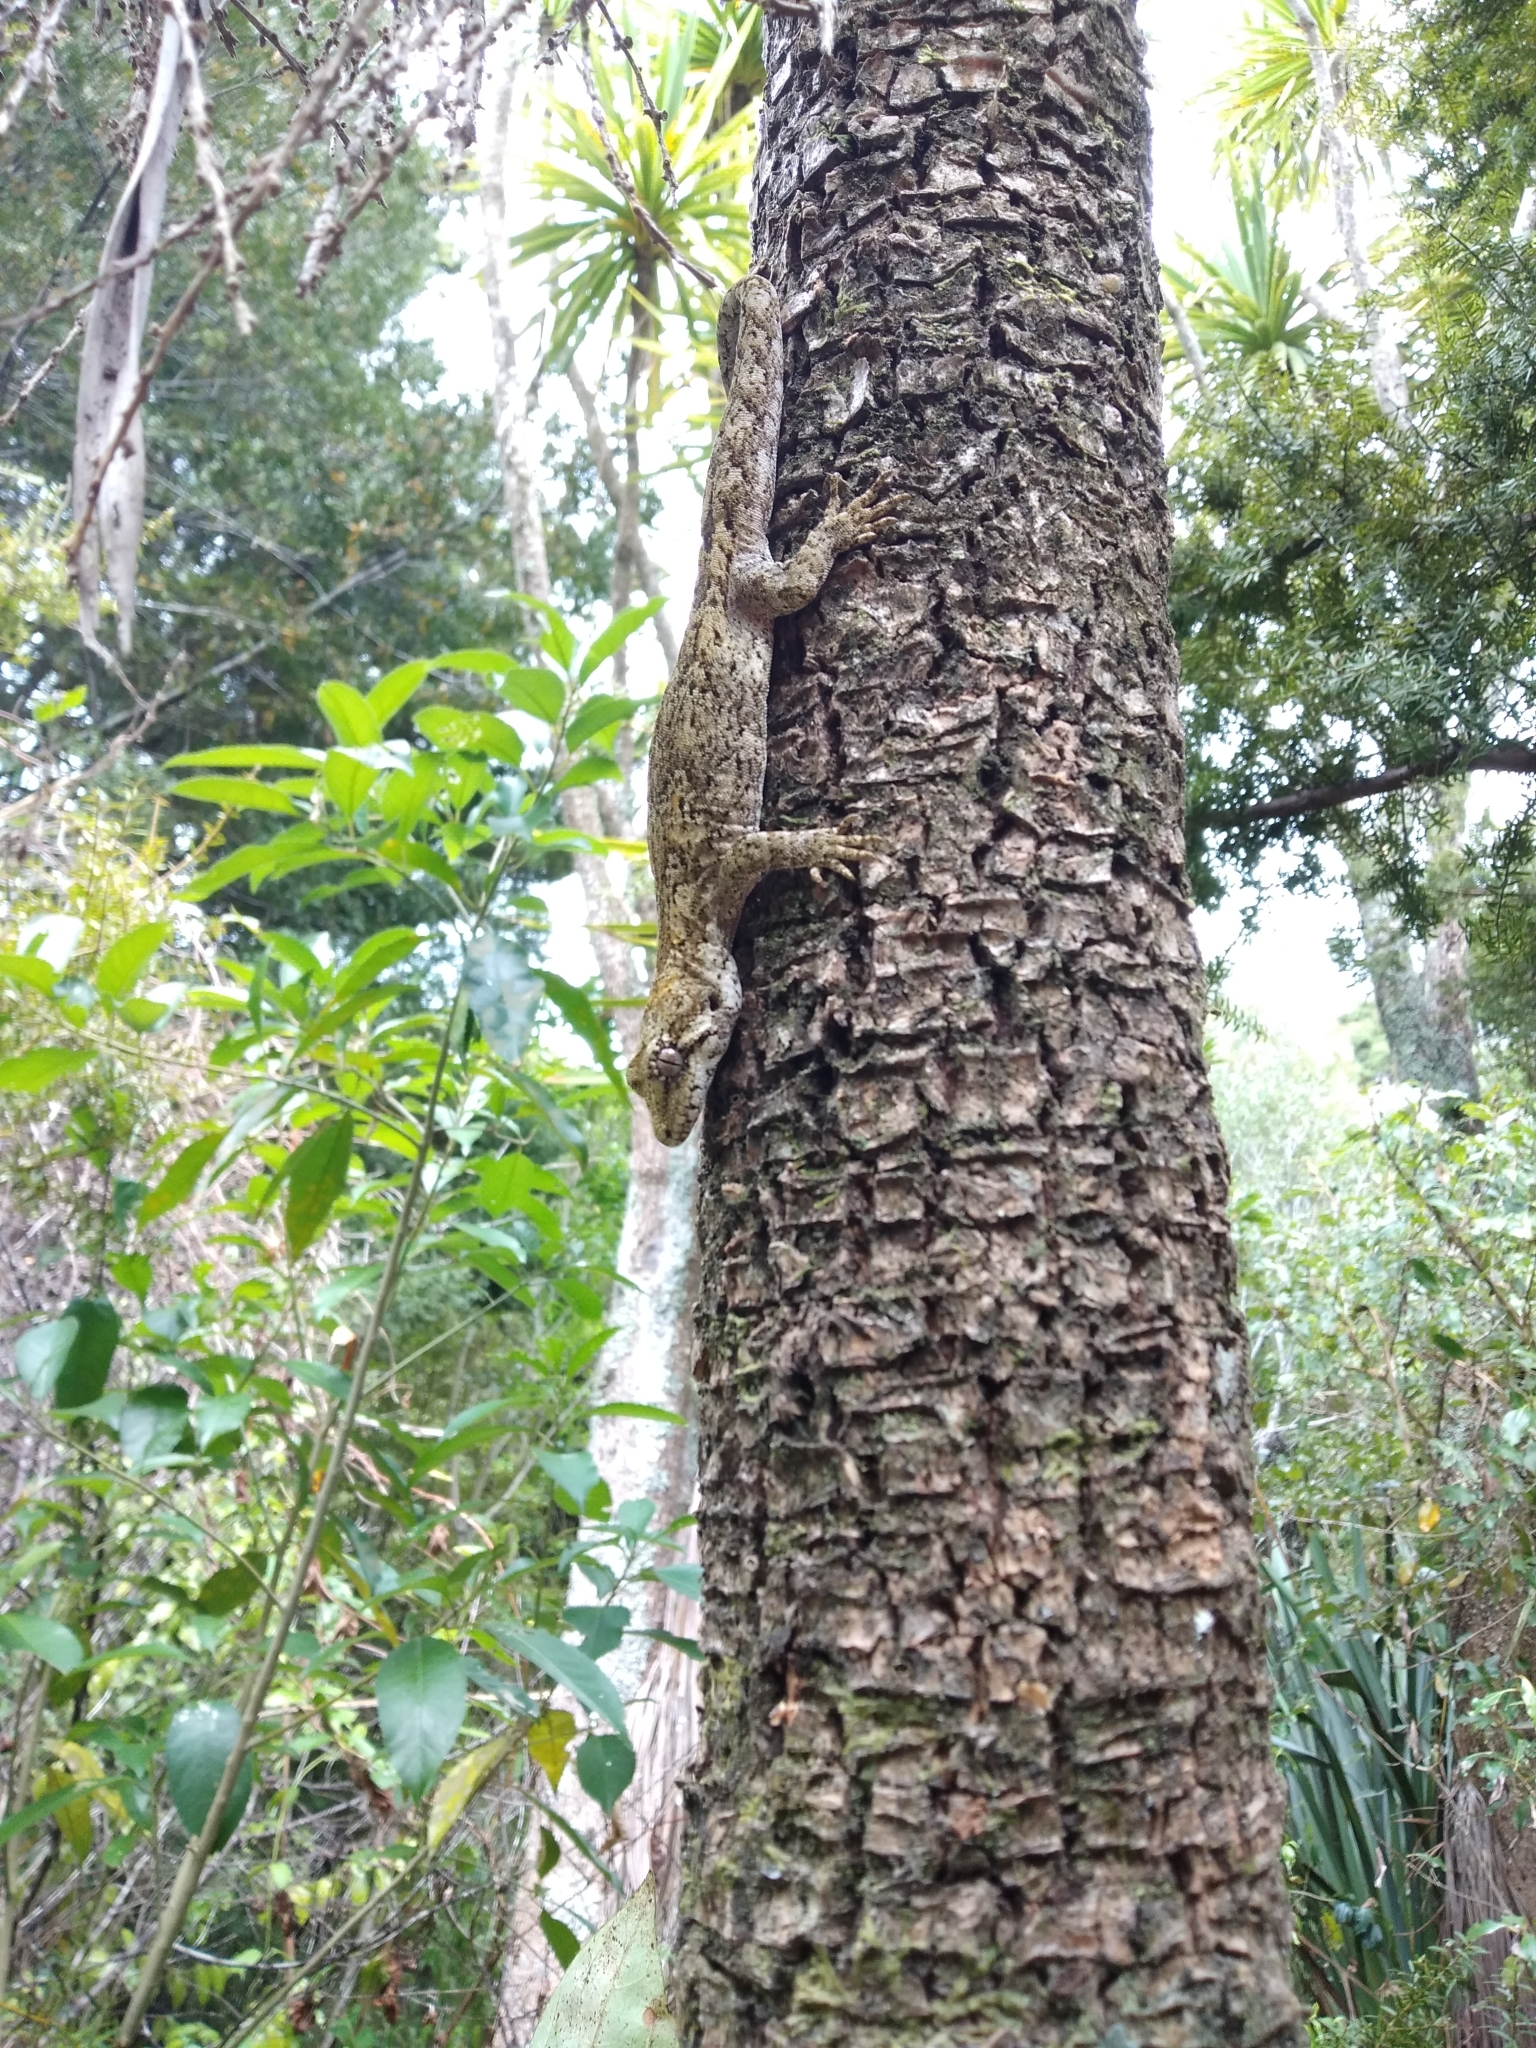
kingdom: Animalia
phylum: Chordata
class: Squamata
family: Diplodactylidae
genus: Mokopirirakau
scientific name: Mokopirirakau granulatus
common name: Forest gecko
